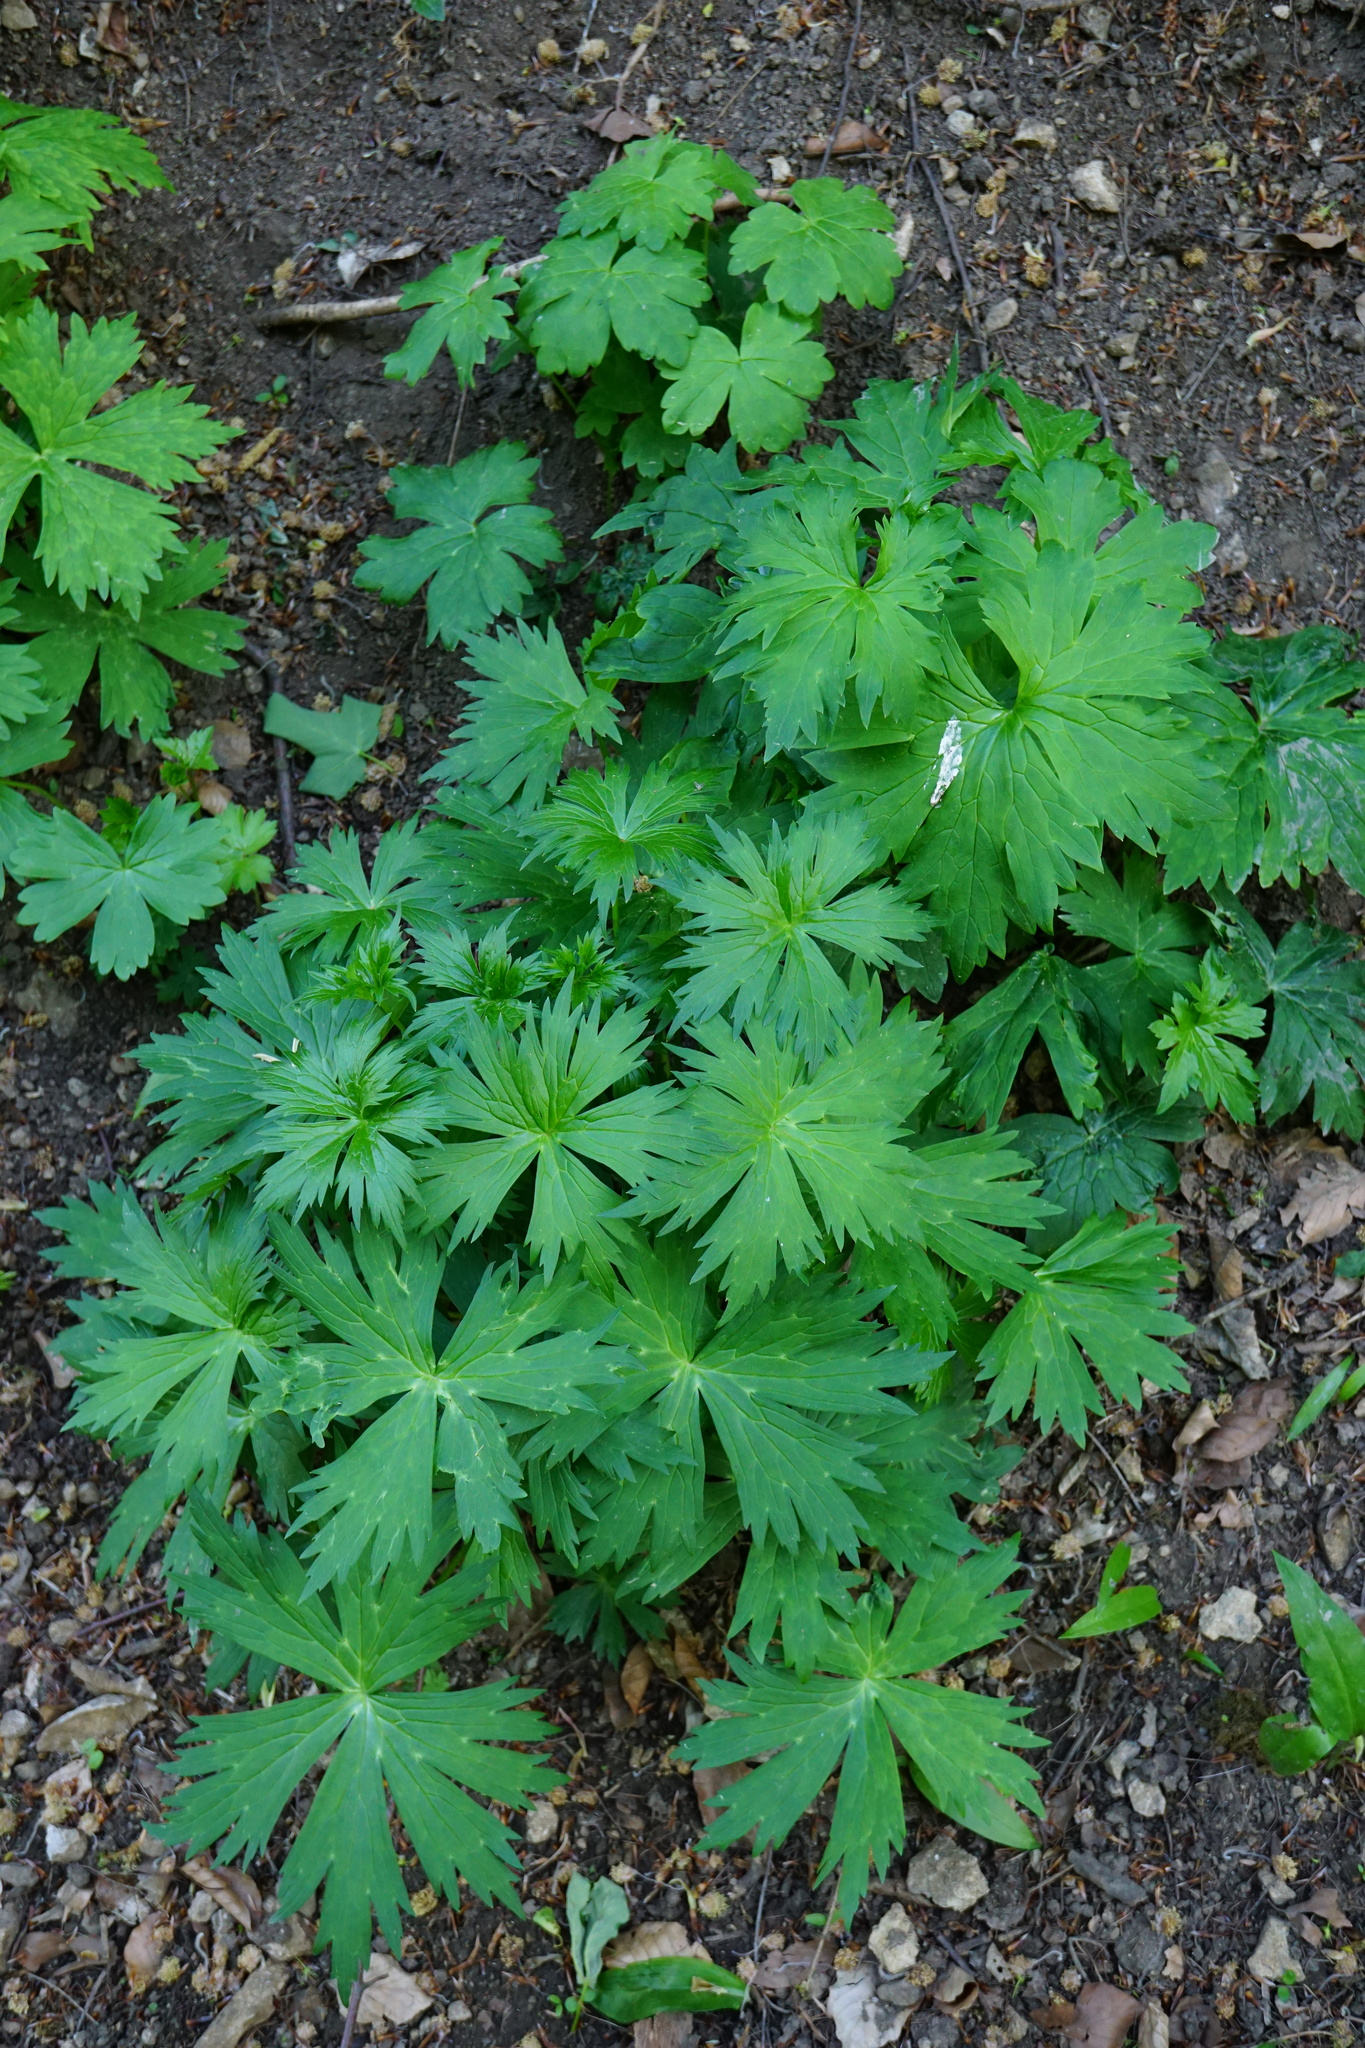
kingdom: Plantae
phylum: Tracheophyta
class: Magnoliopsida
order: Ranunculales
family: Ranunculaceae
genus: Aconitum
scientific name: Aconitum lycoctonum
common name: Wolf's-bane
